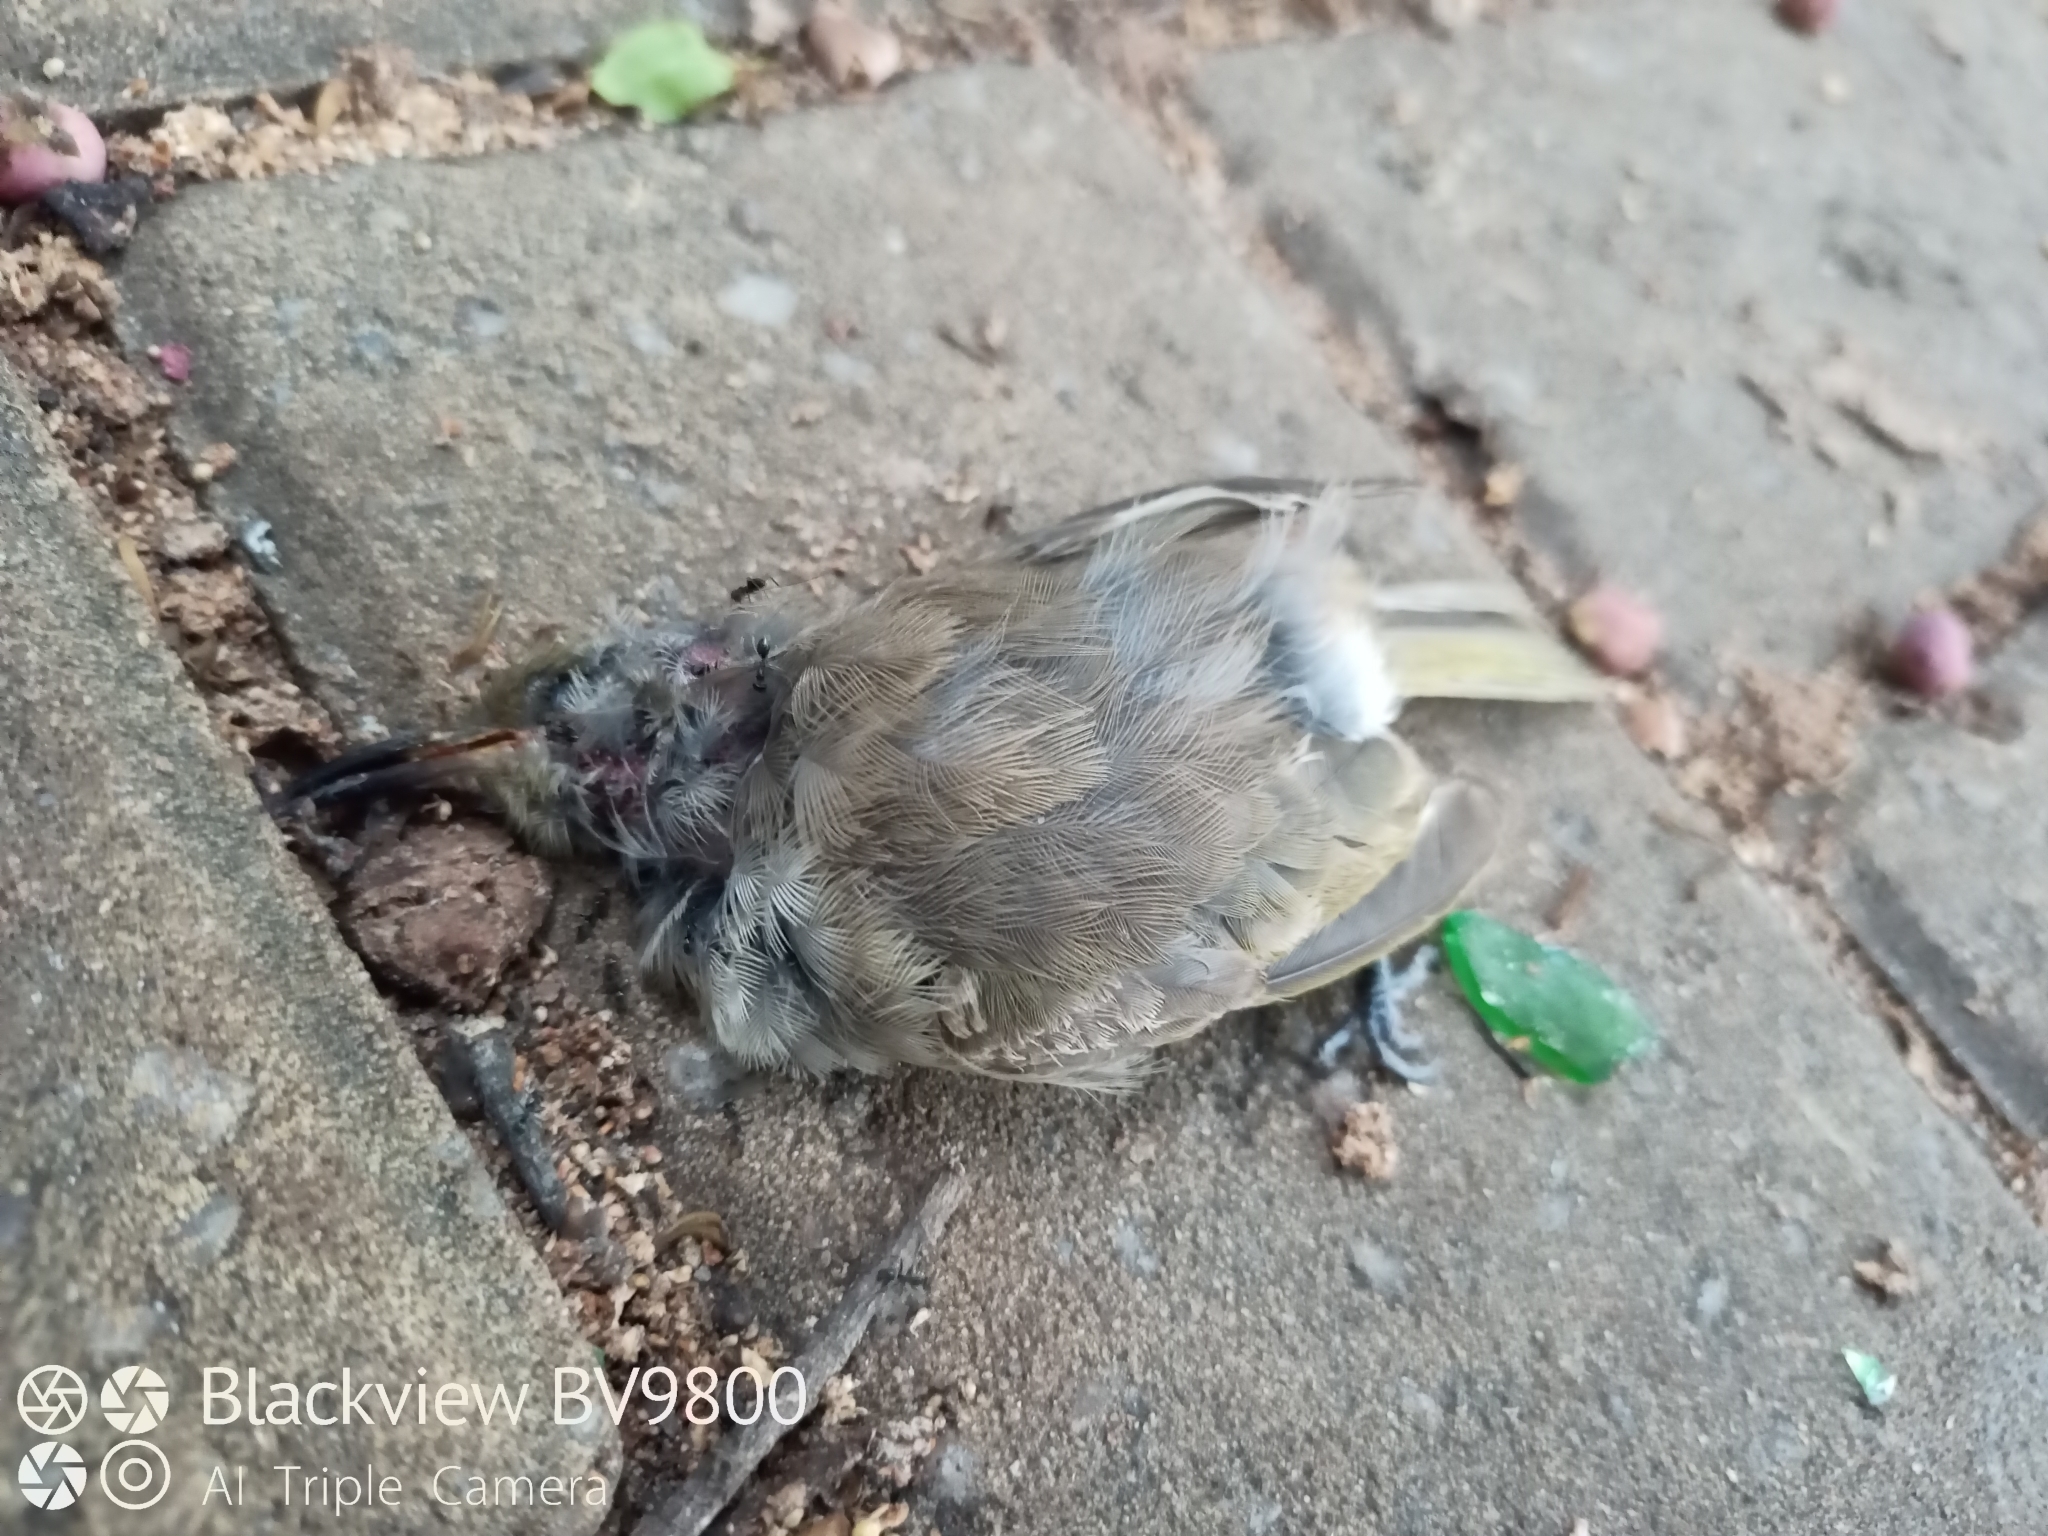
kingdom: Animalia
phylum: Chordata
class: Aves
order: Passeriformes
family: Meliphagidae
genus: Lichmera
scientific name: Lichmera indistincta
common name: Brown honeyeater
